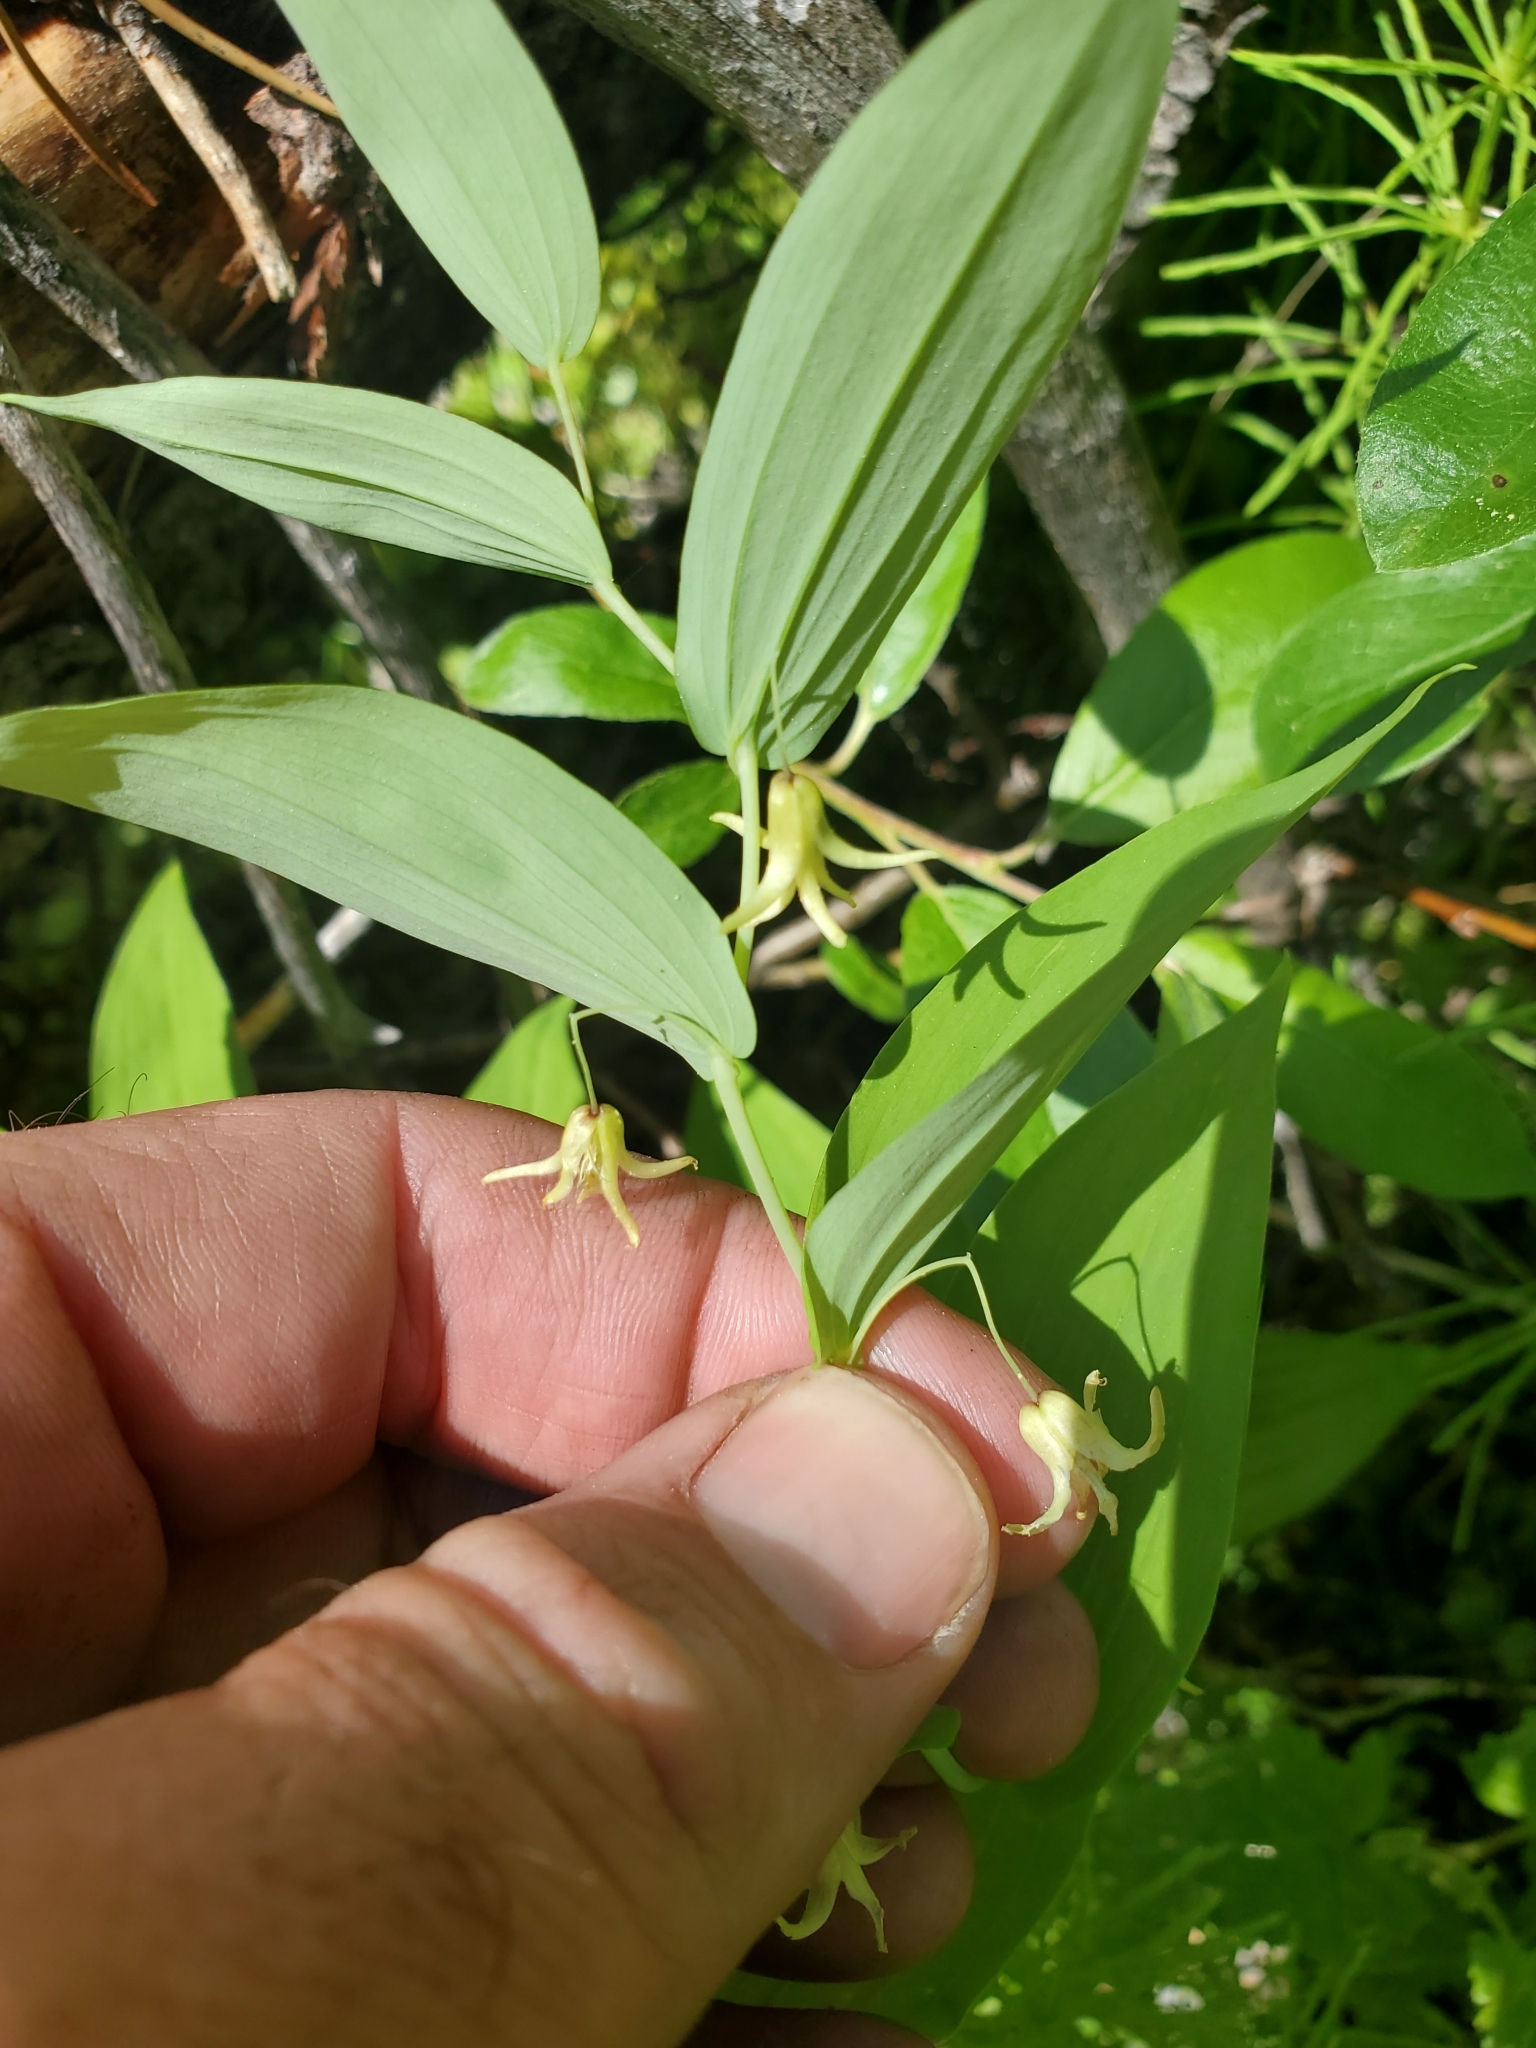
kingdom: Plantae
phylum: Tracheophyta
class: Liliopsida
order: Liliales
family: Liliaceae
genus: Streptopus
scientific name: Streptopus amplexifolius
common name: Clasp twisted stalk
